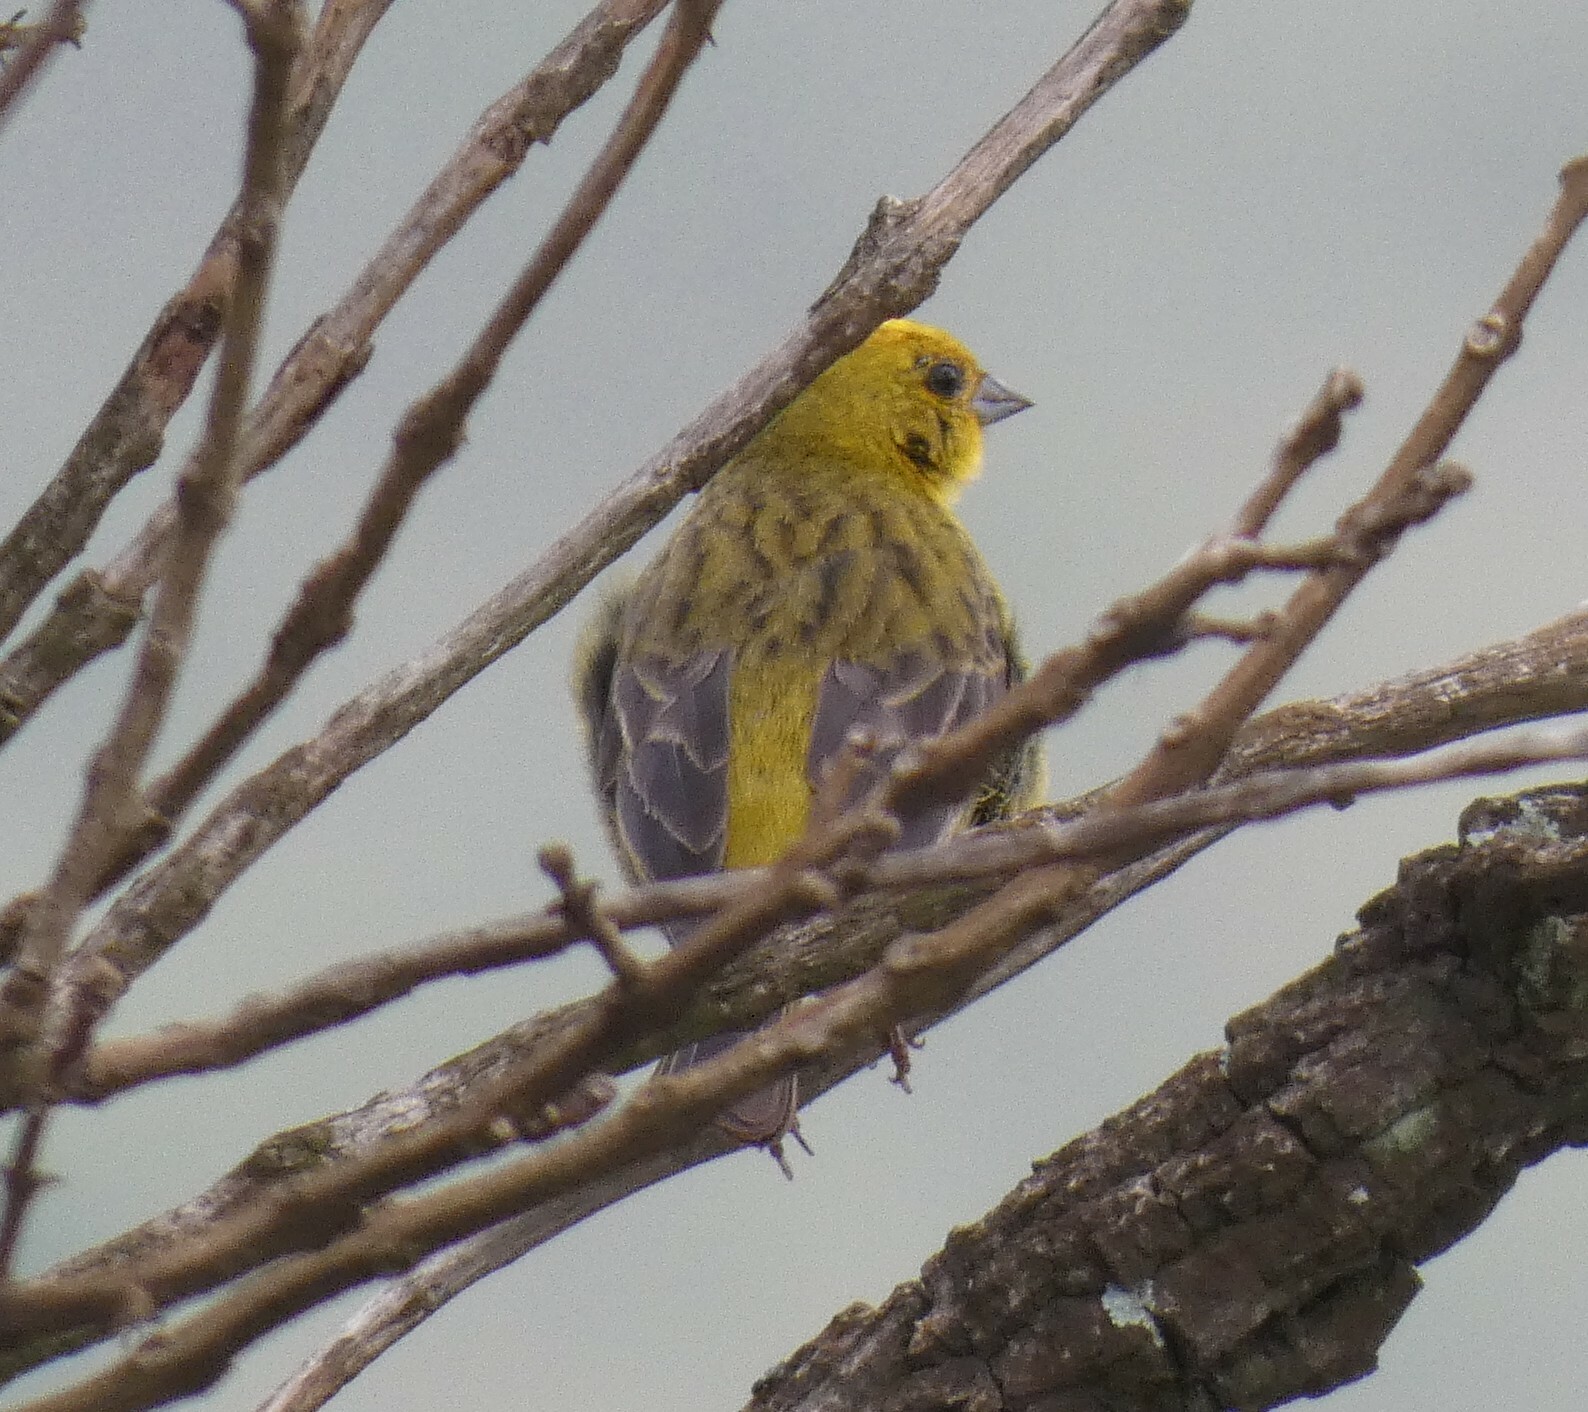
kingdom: Animalia
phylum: Chordata
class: Aves
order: Passeriformes
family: Thraupidae
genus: Sicalis
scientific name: Sicalis citrina
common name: Stripe-tailed yellow finch
